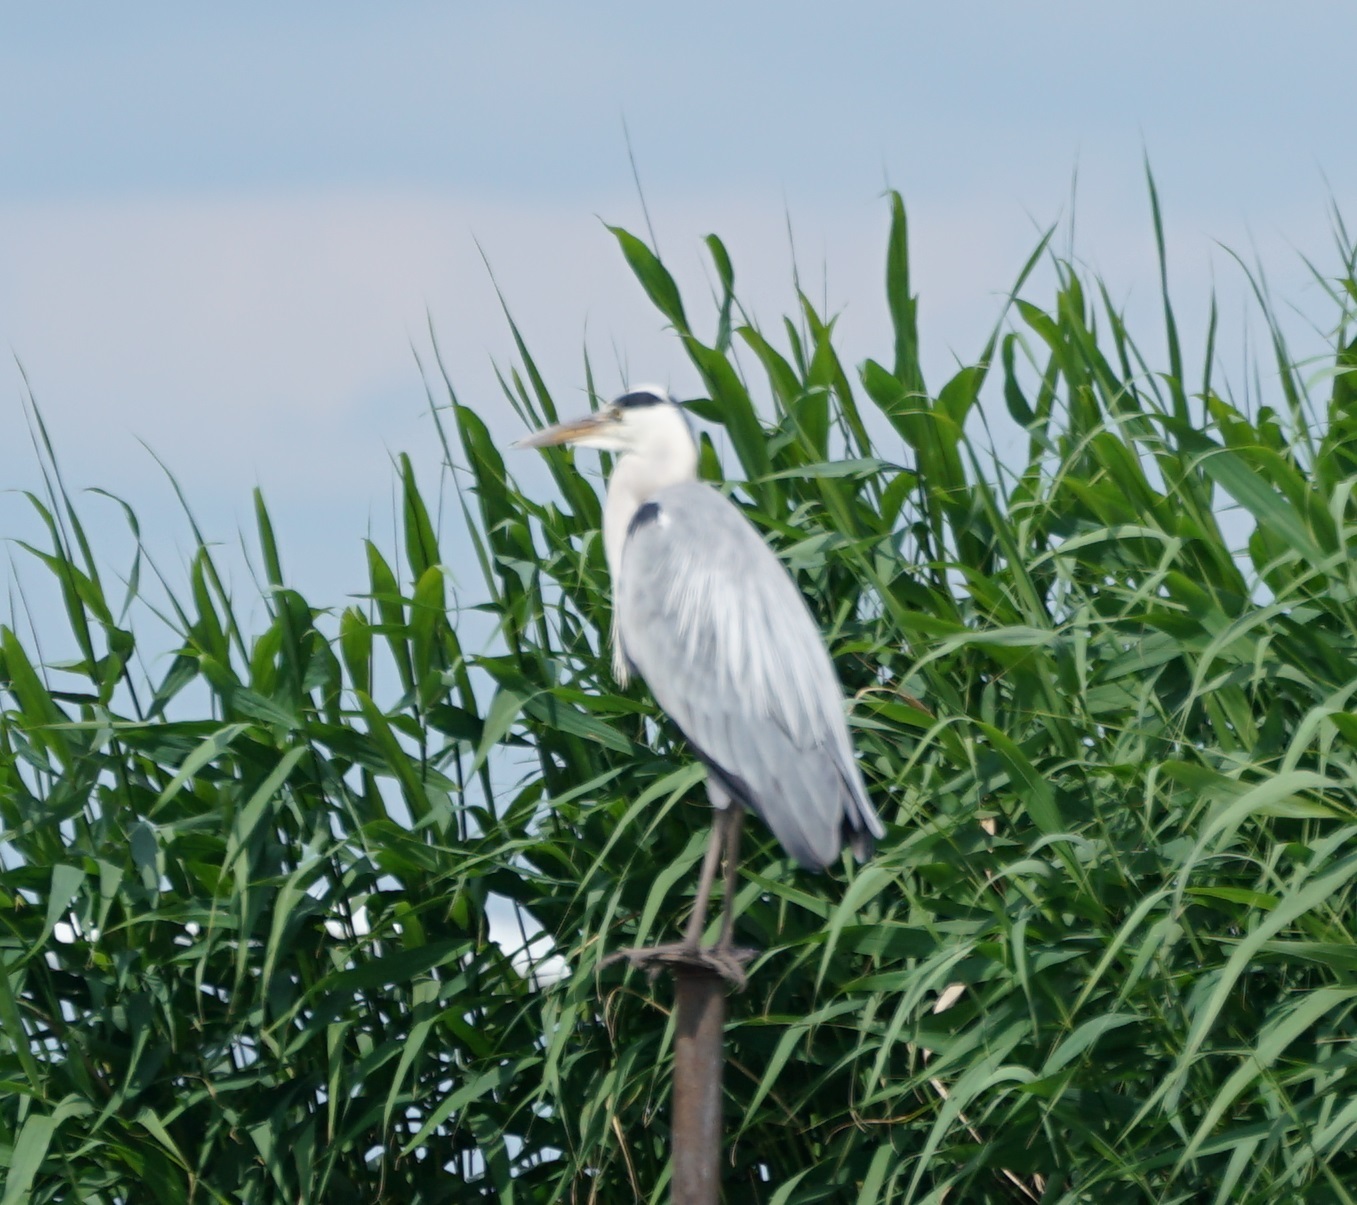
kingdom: Animalia
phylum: Chordata
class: Aves
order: Pelecaniformes
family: Ardeidae
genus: Ardea
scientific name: Ardea cinerea
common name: Grey heron
